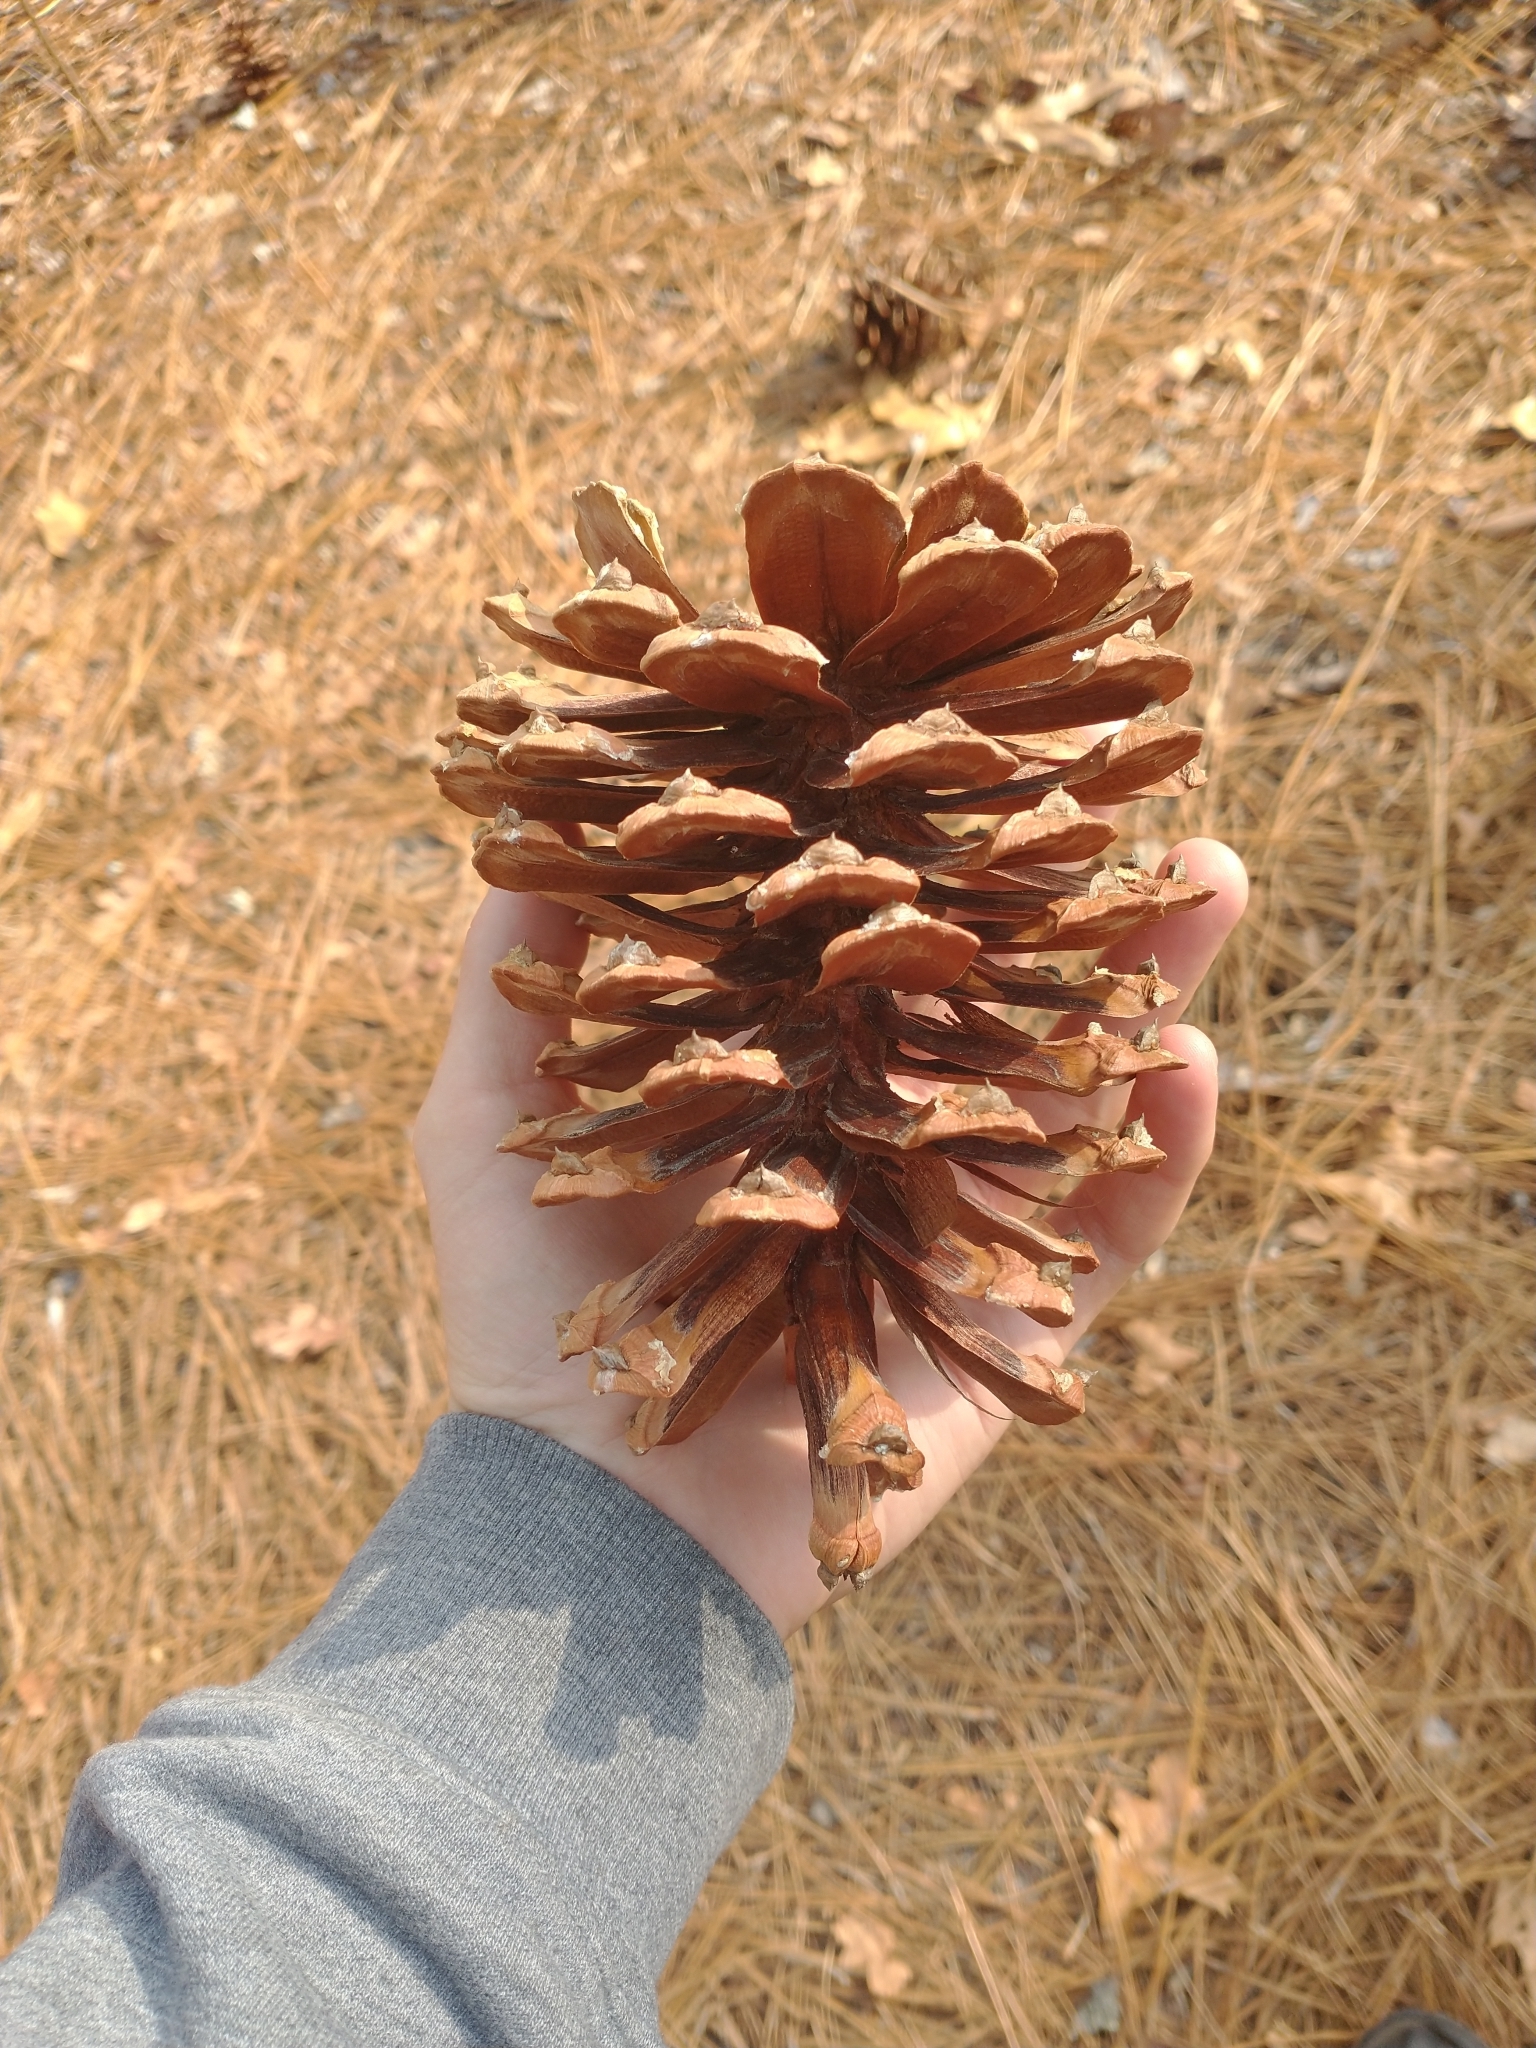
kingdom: Plantae
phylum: Tracheophyta
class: Pinopsida
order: Pinales
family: Pinaceae
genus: Pinus
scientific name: Pinus palustris
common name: Longleaf pine
